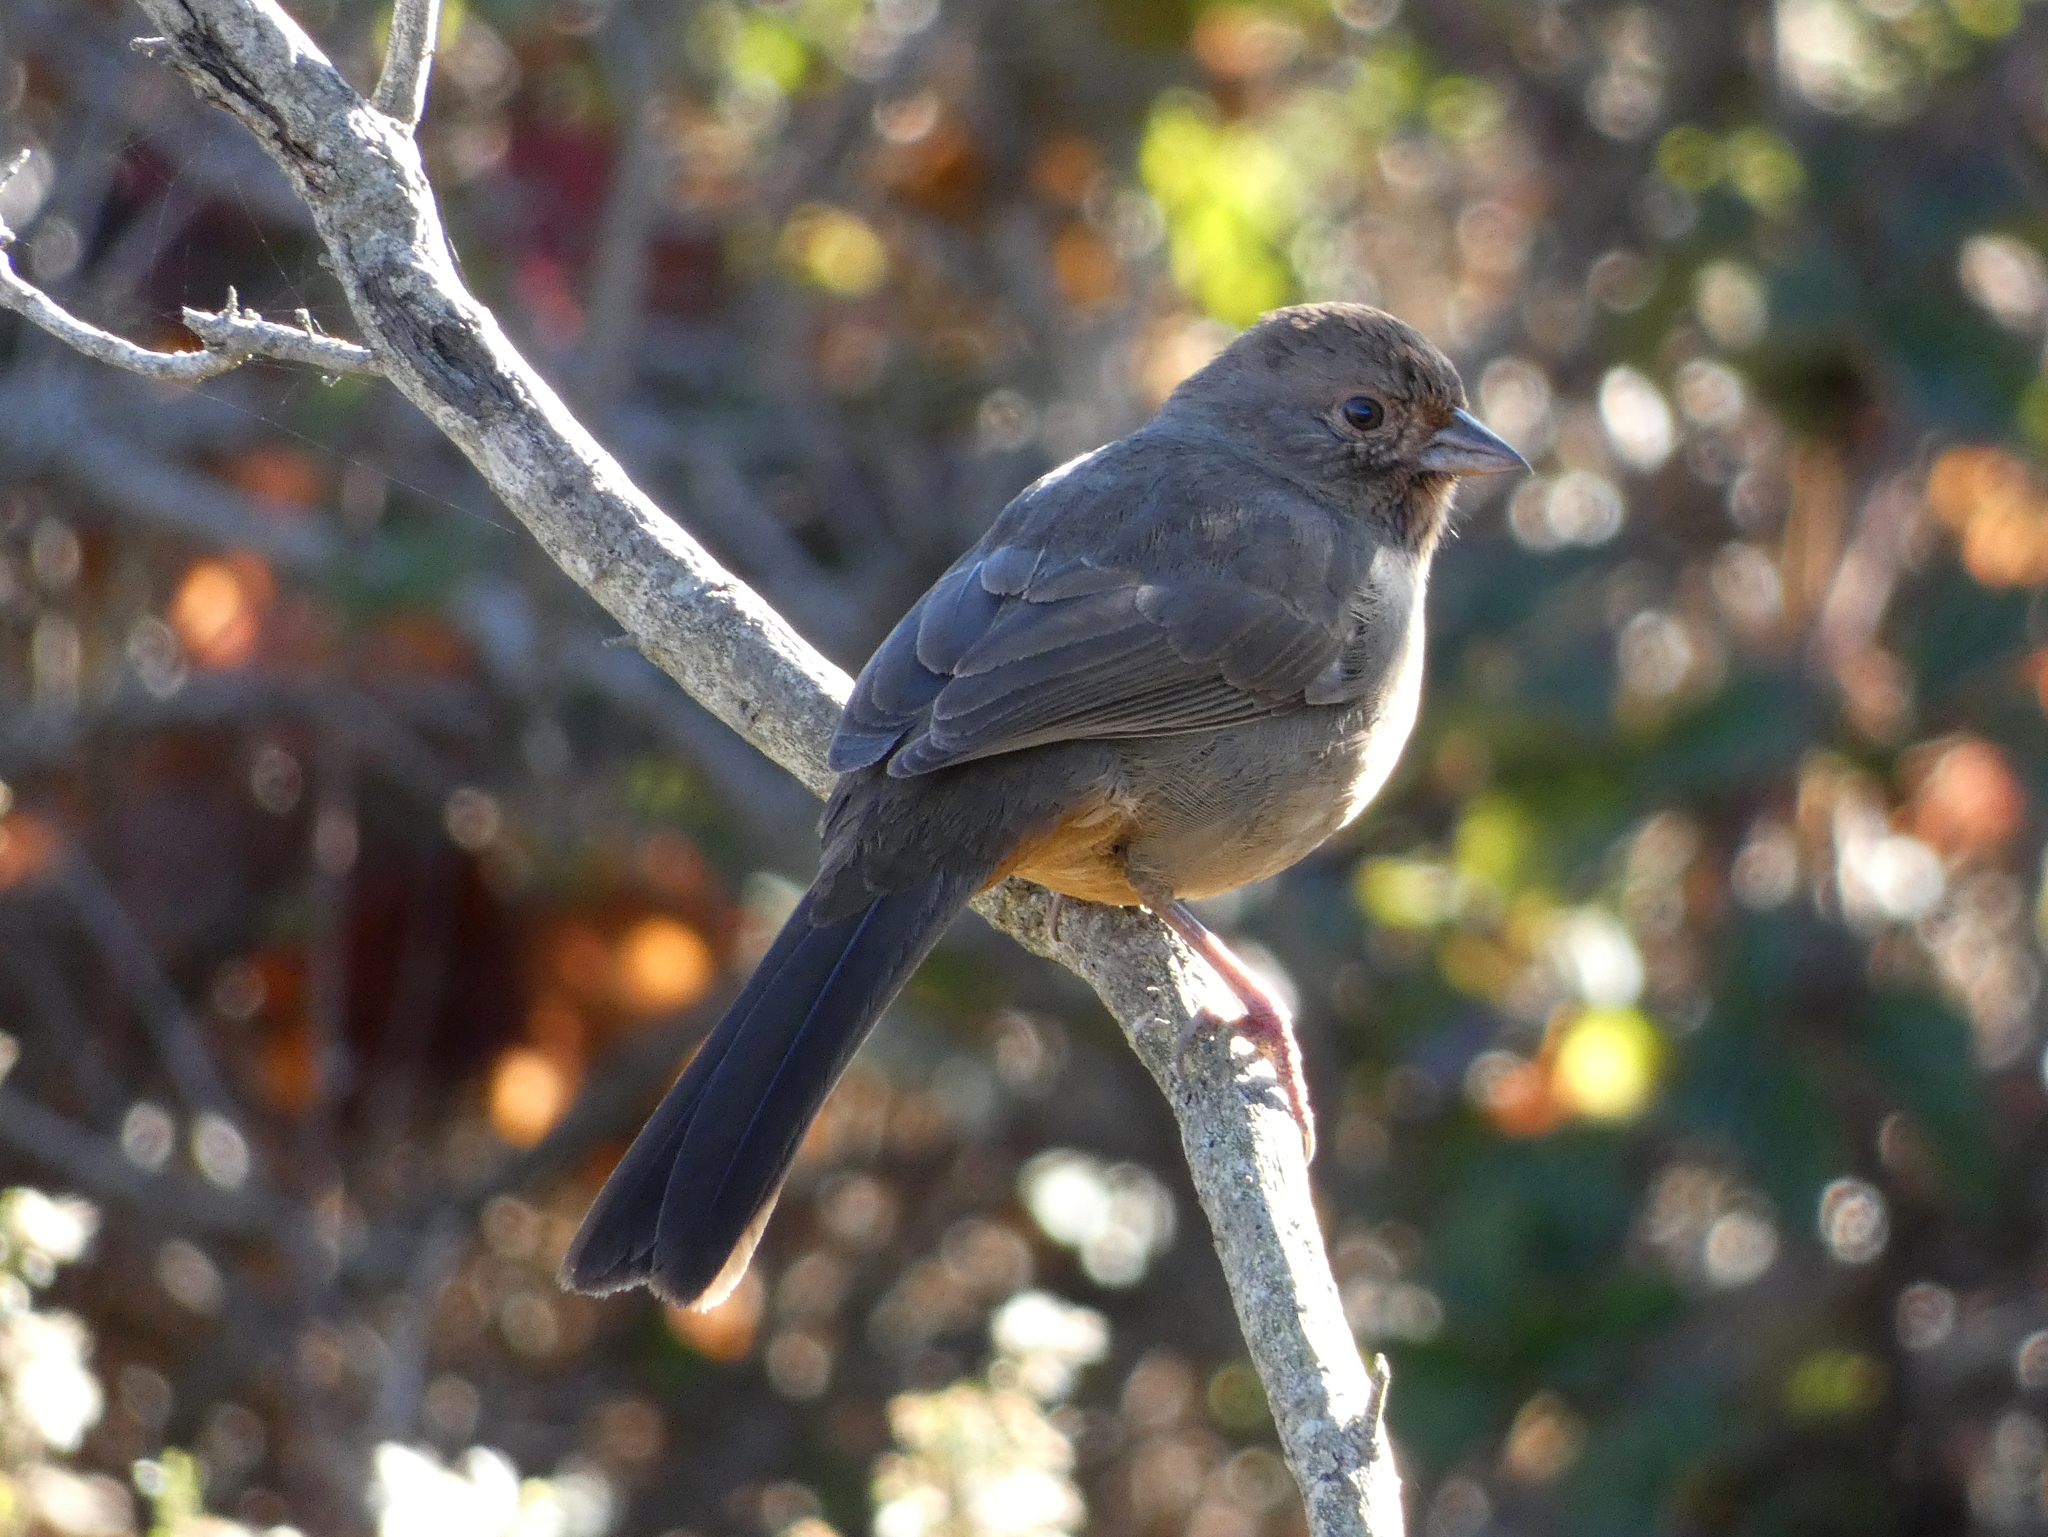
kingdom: Animalia
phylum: Chordata
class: Aves
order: Passeriformes
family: Passerellidae
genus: Melozone
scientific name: Melozone crissalis
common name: California towhee
